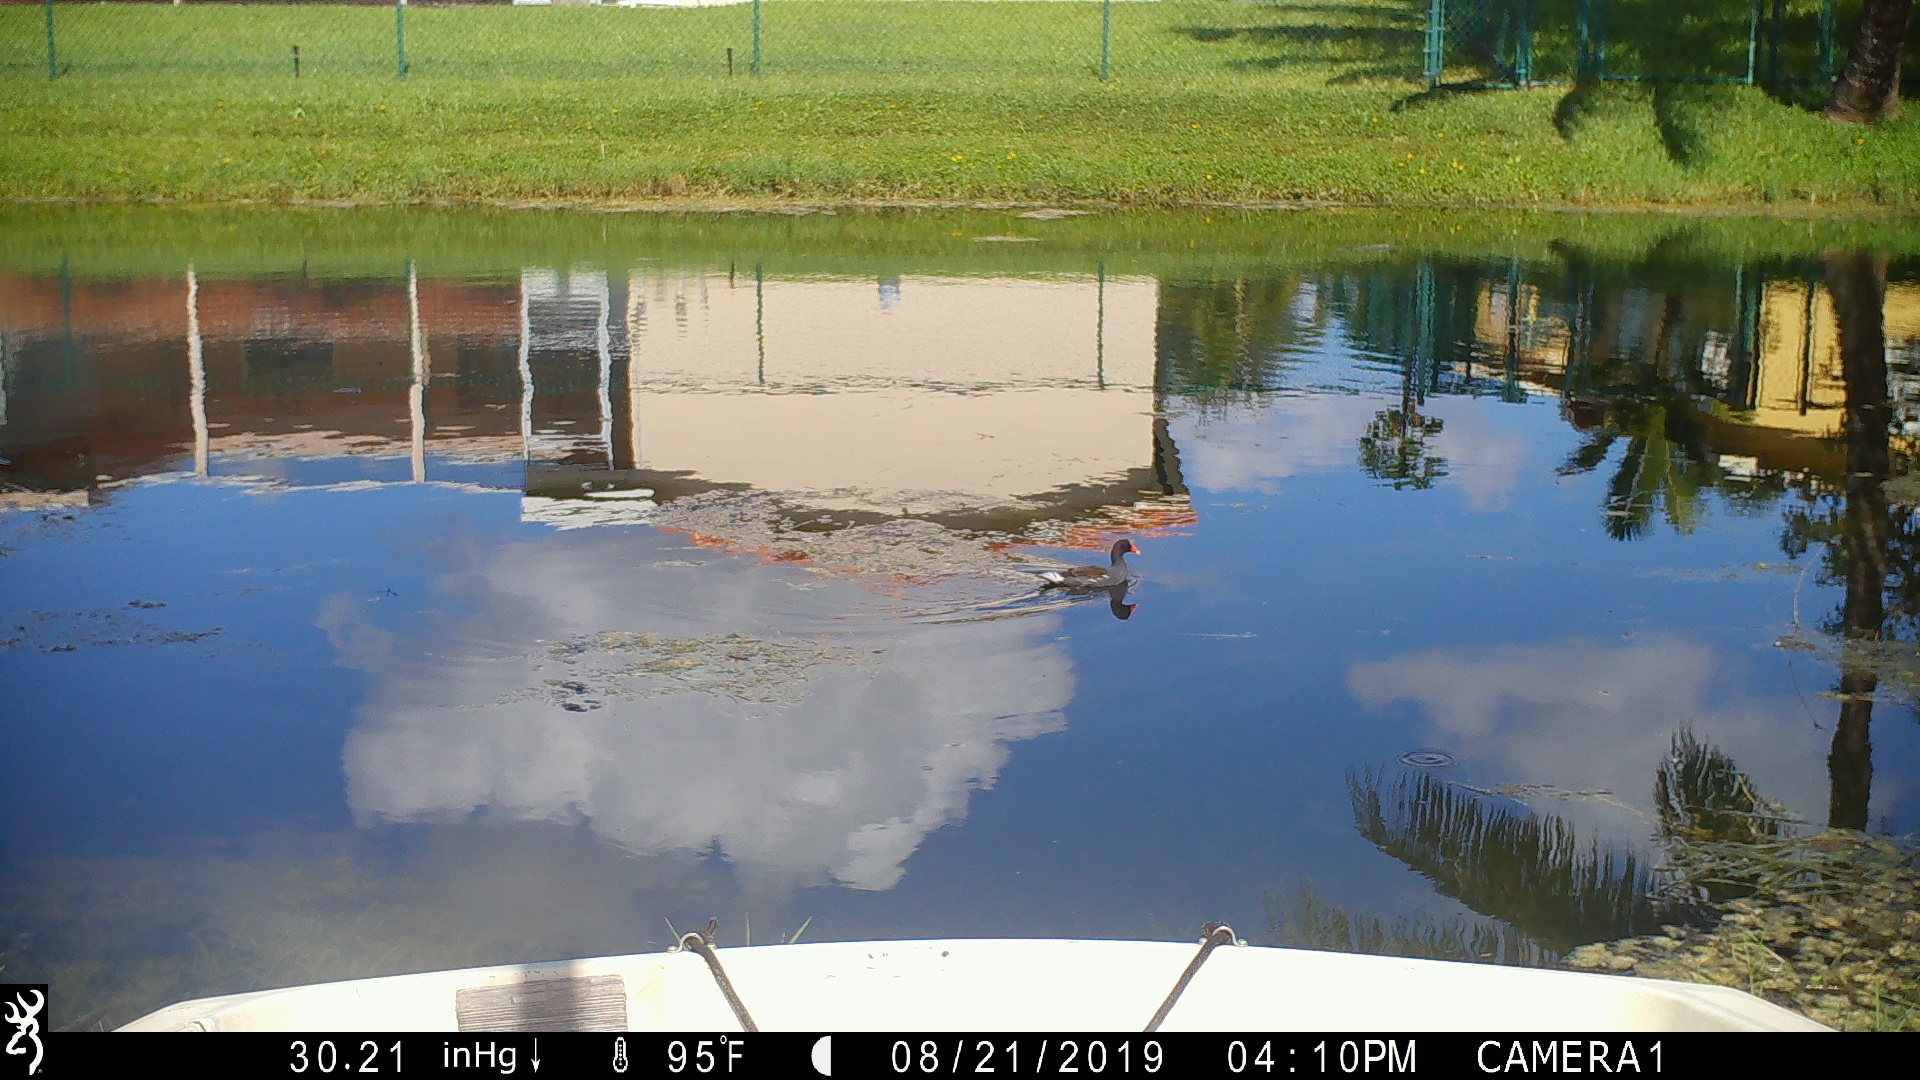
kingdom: Animalia
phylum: Chordata
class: Aves
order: Gruiformes
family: Rallidae
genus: Gallinula
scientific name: Gallinula chloropus
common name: Common moorhen
